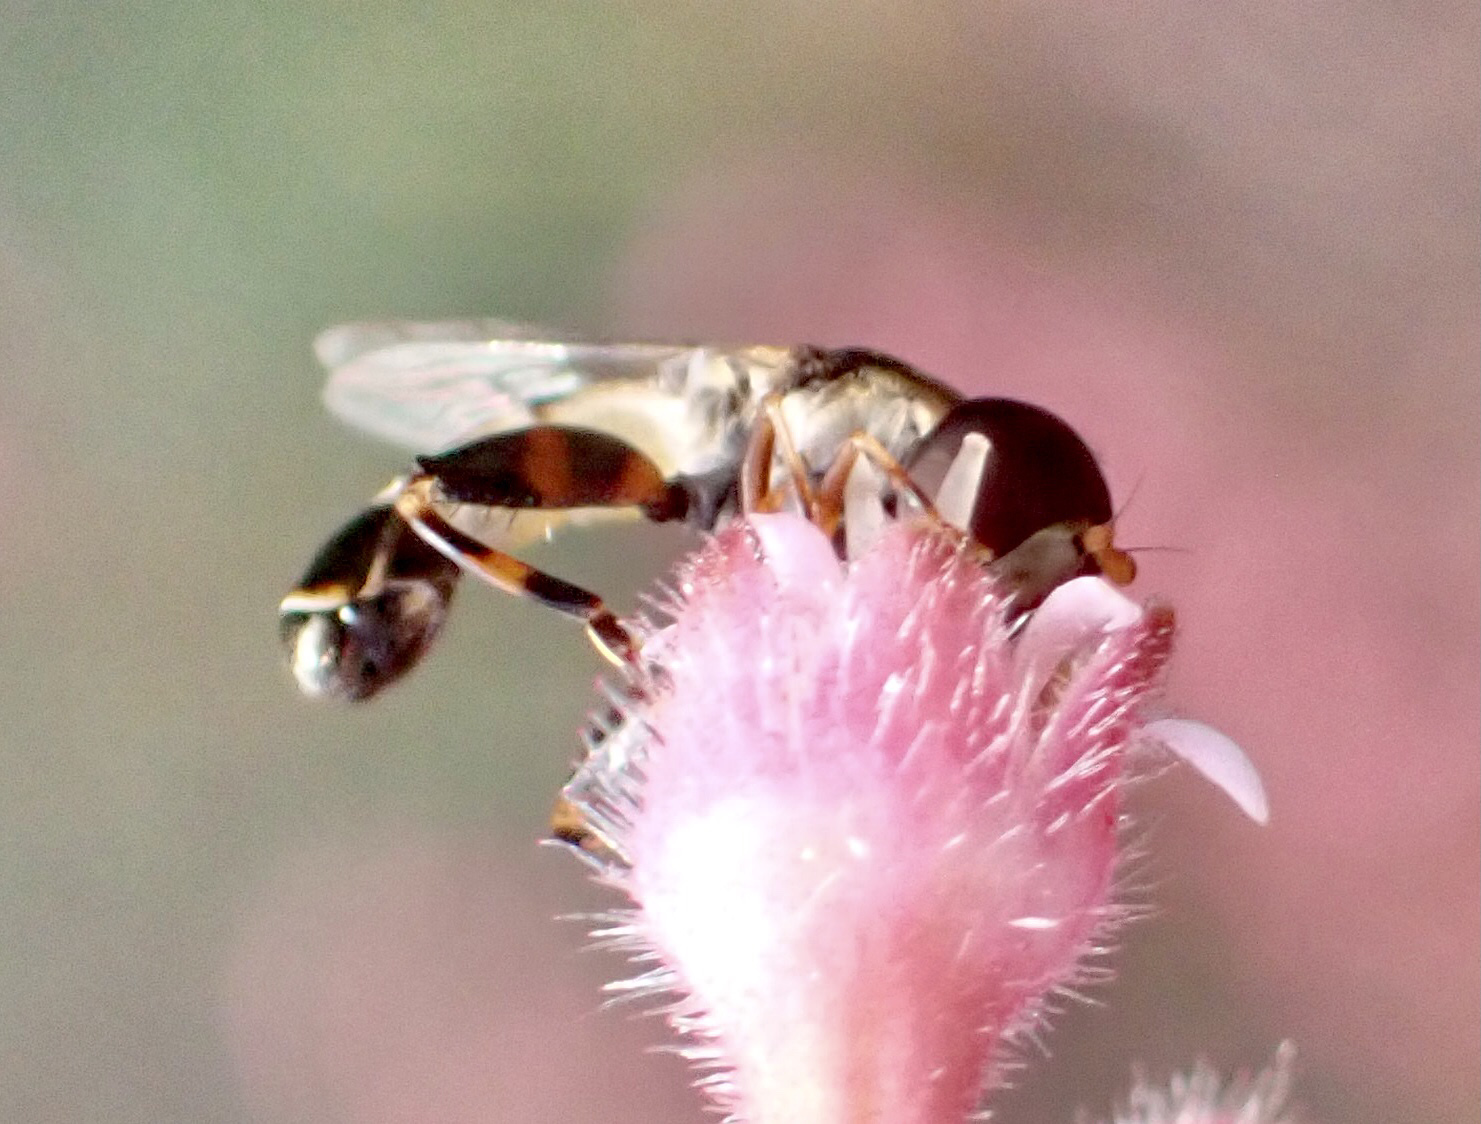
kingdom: Animalia
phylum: Arthropoda
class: Insecta
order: Diptera
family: Syrphidae
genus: Syritta
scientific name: Syritta pipiens
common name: Hover fly
